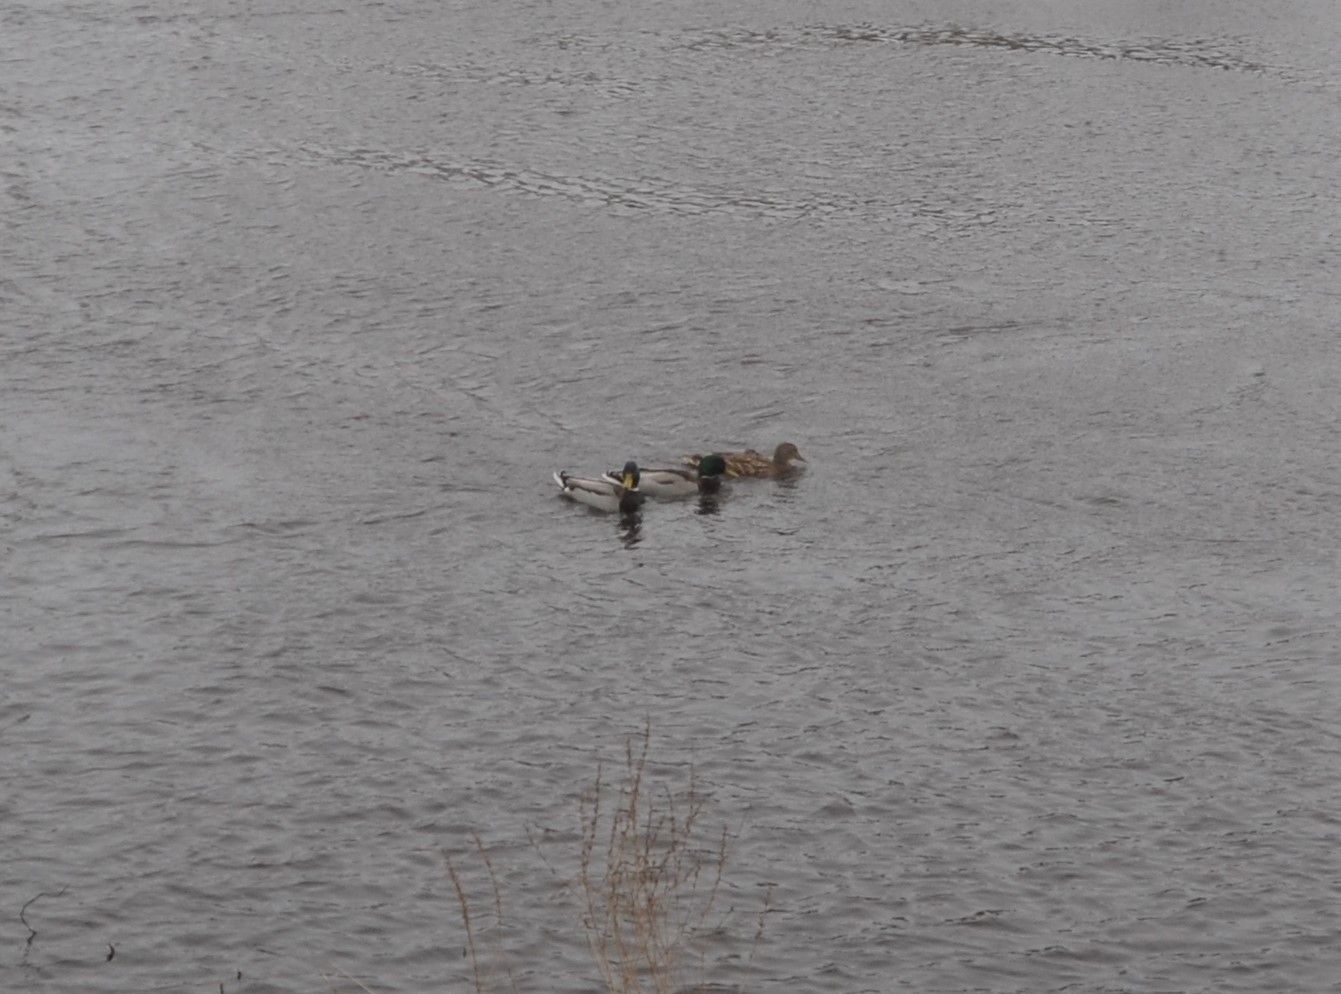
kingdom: Animalia
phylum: Chordata
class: Aves
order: Anseriformes
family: Anatidae
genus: Anas
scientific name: Anas platyrhynchos
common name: Mallard
